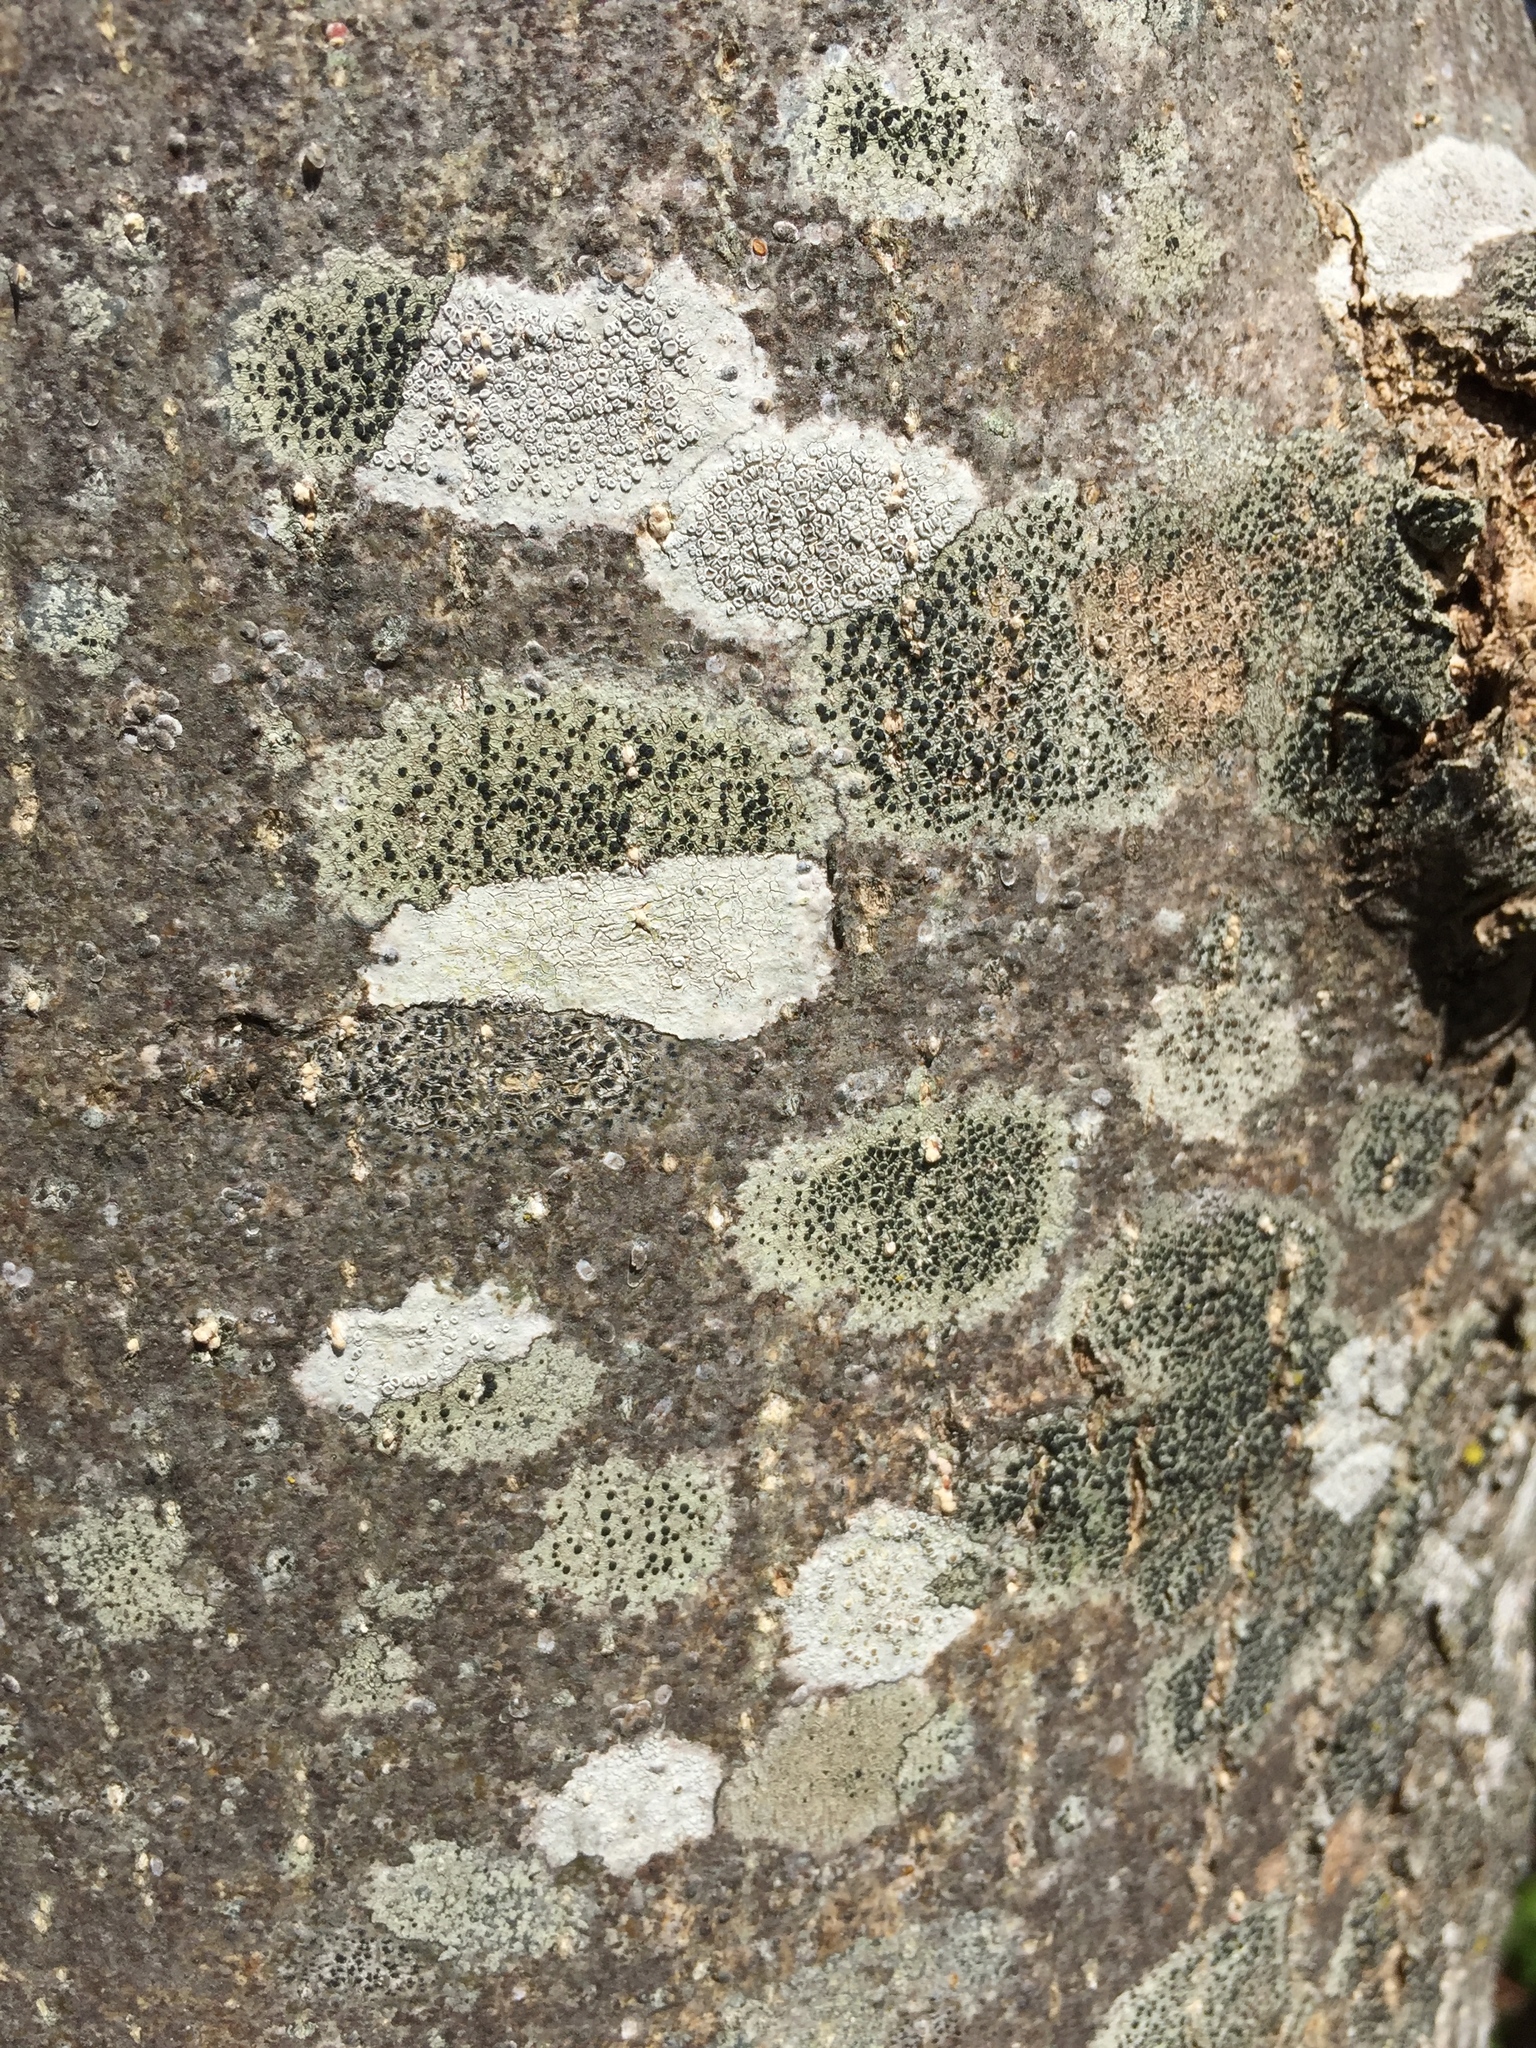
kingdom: Fungi
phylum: Ascomycota
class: Lecanoromycetes
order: Lecanorales
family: Lecanoraceae
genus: Glaucomaria
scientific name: Glaucomaria carpinea
